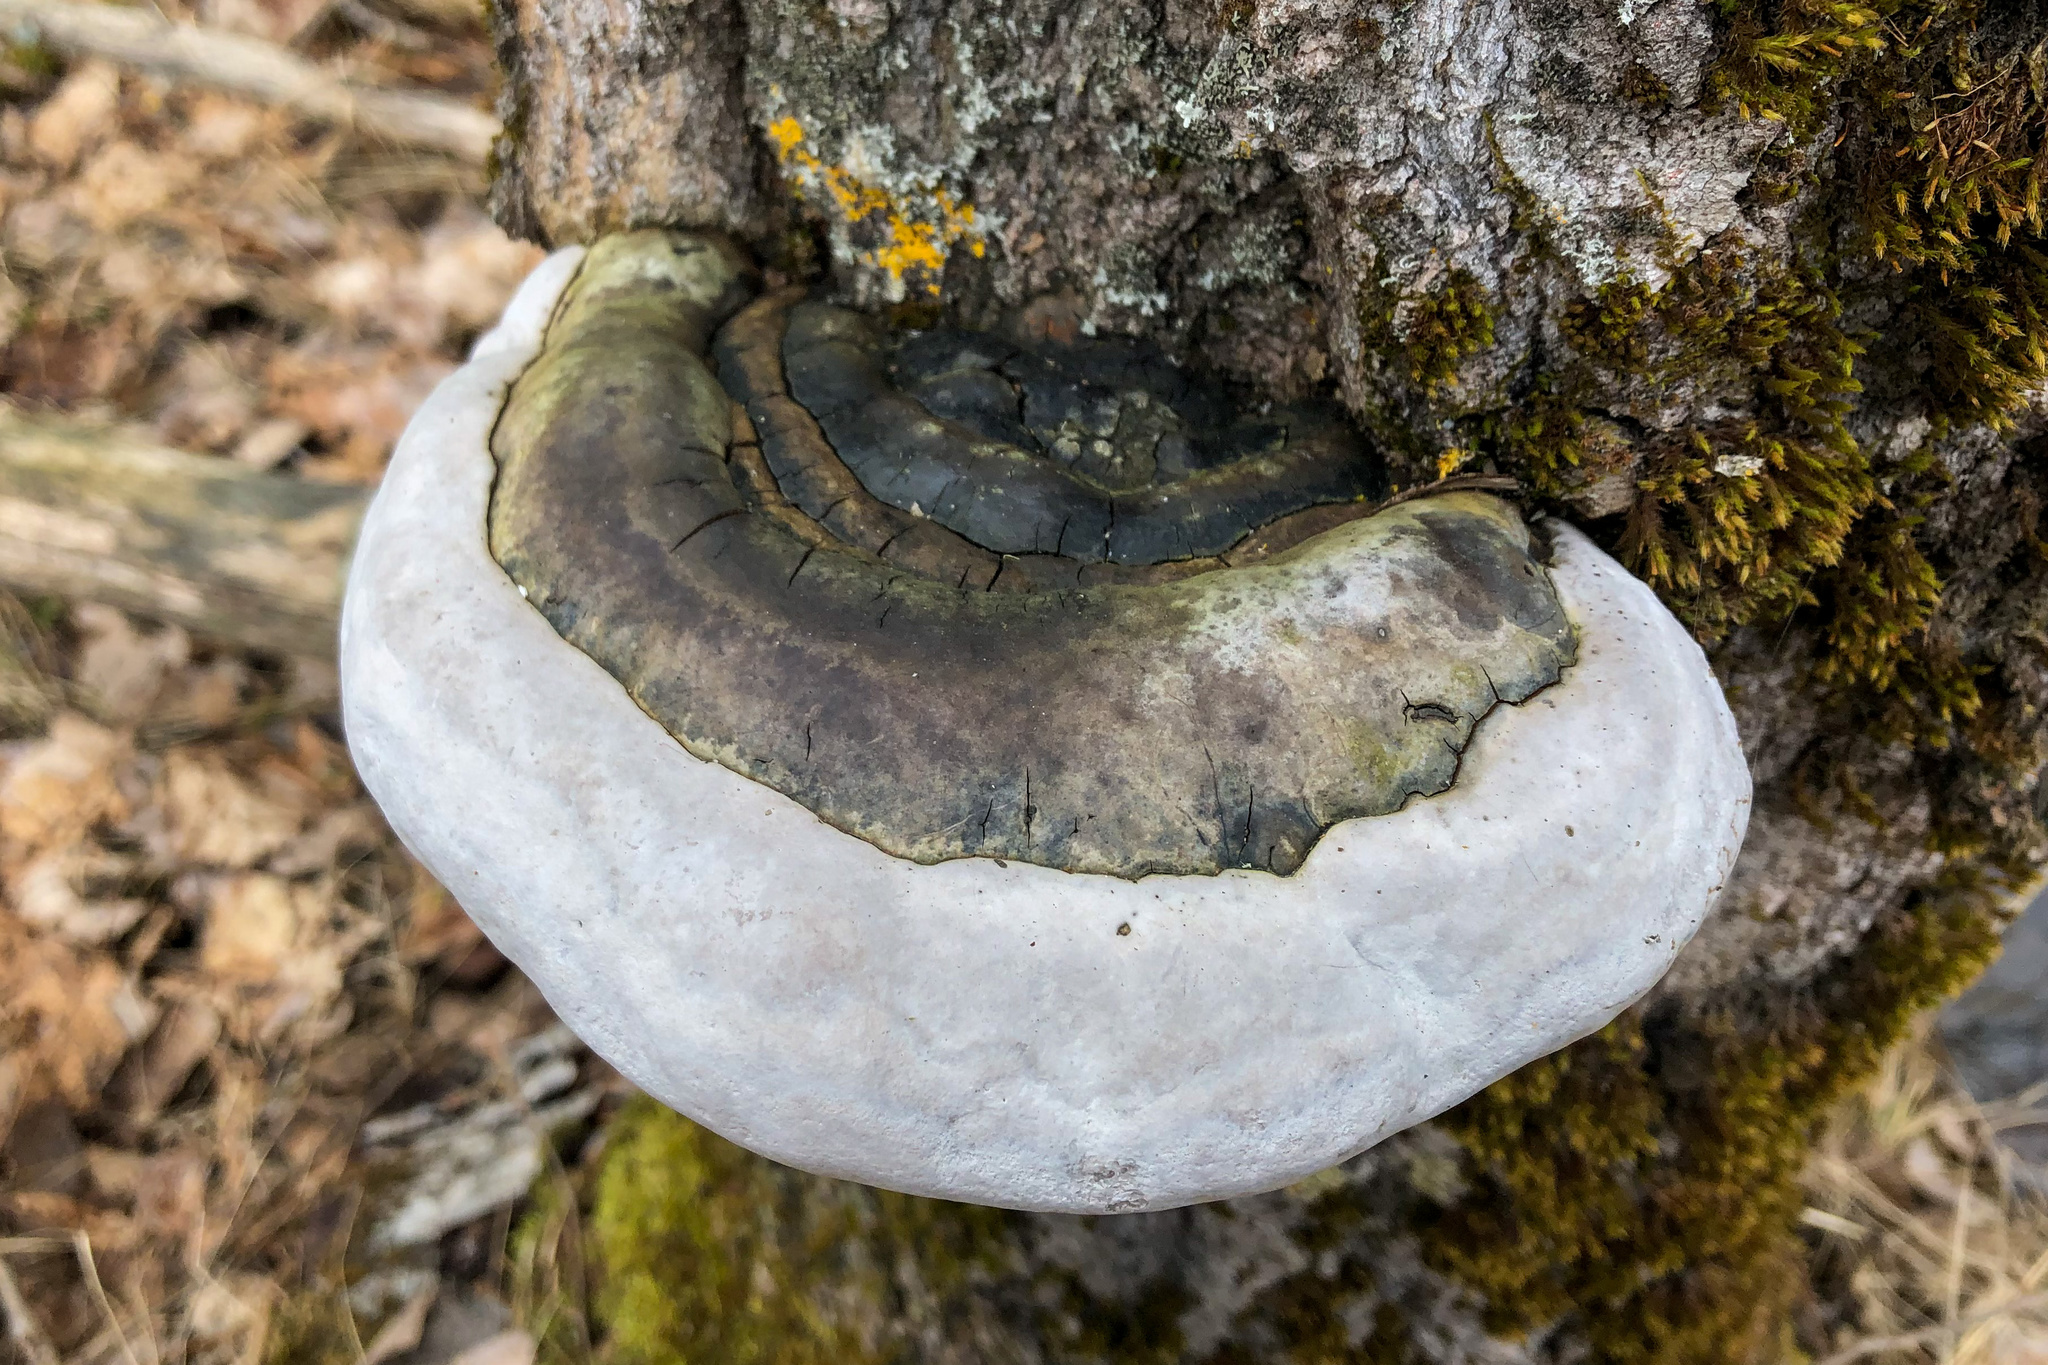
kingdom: Fungi
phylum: Basidiomycota
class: Agaricomycetes
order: Hymenochaetales
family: Hymenochaetaceae
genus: Phellinus
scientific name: Phellinus populicola
